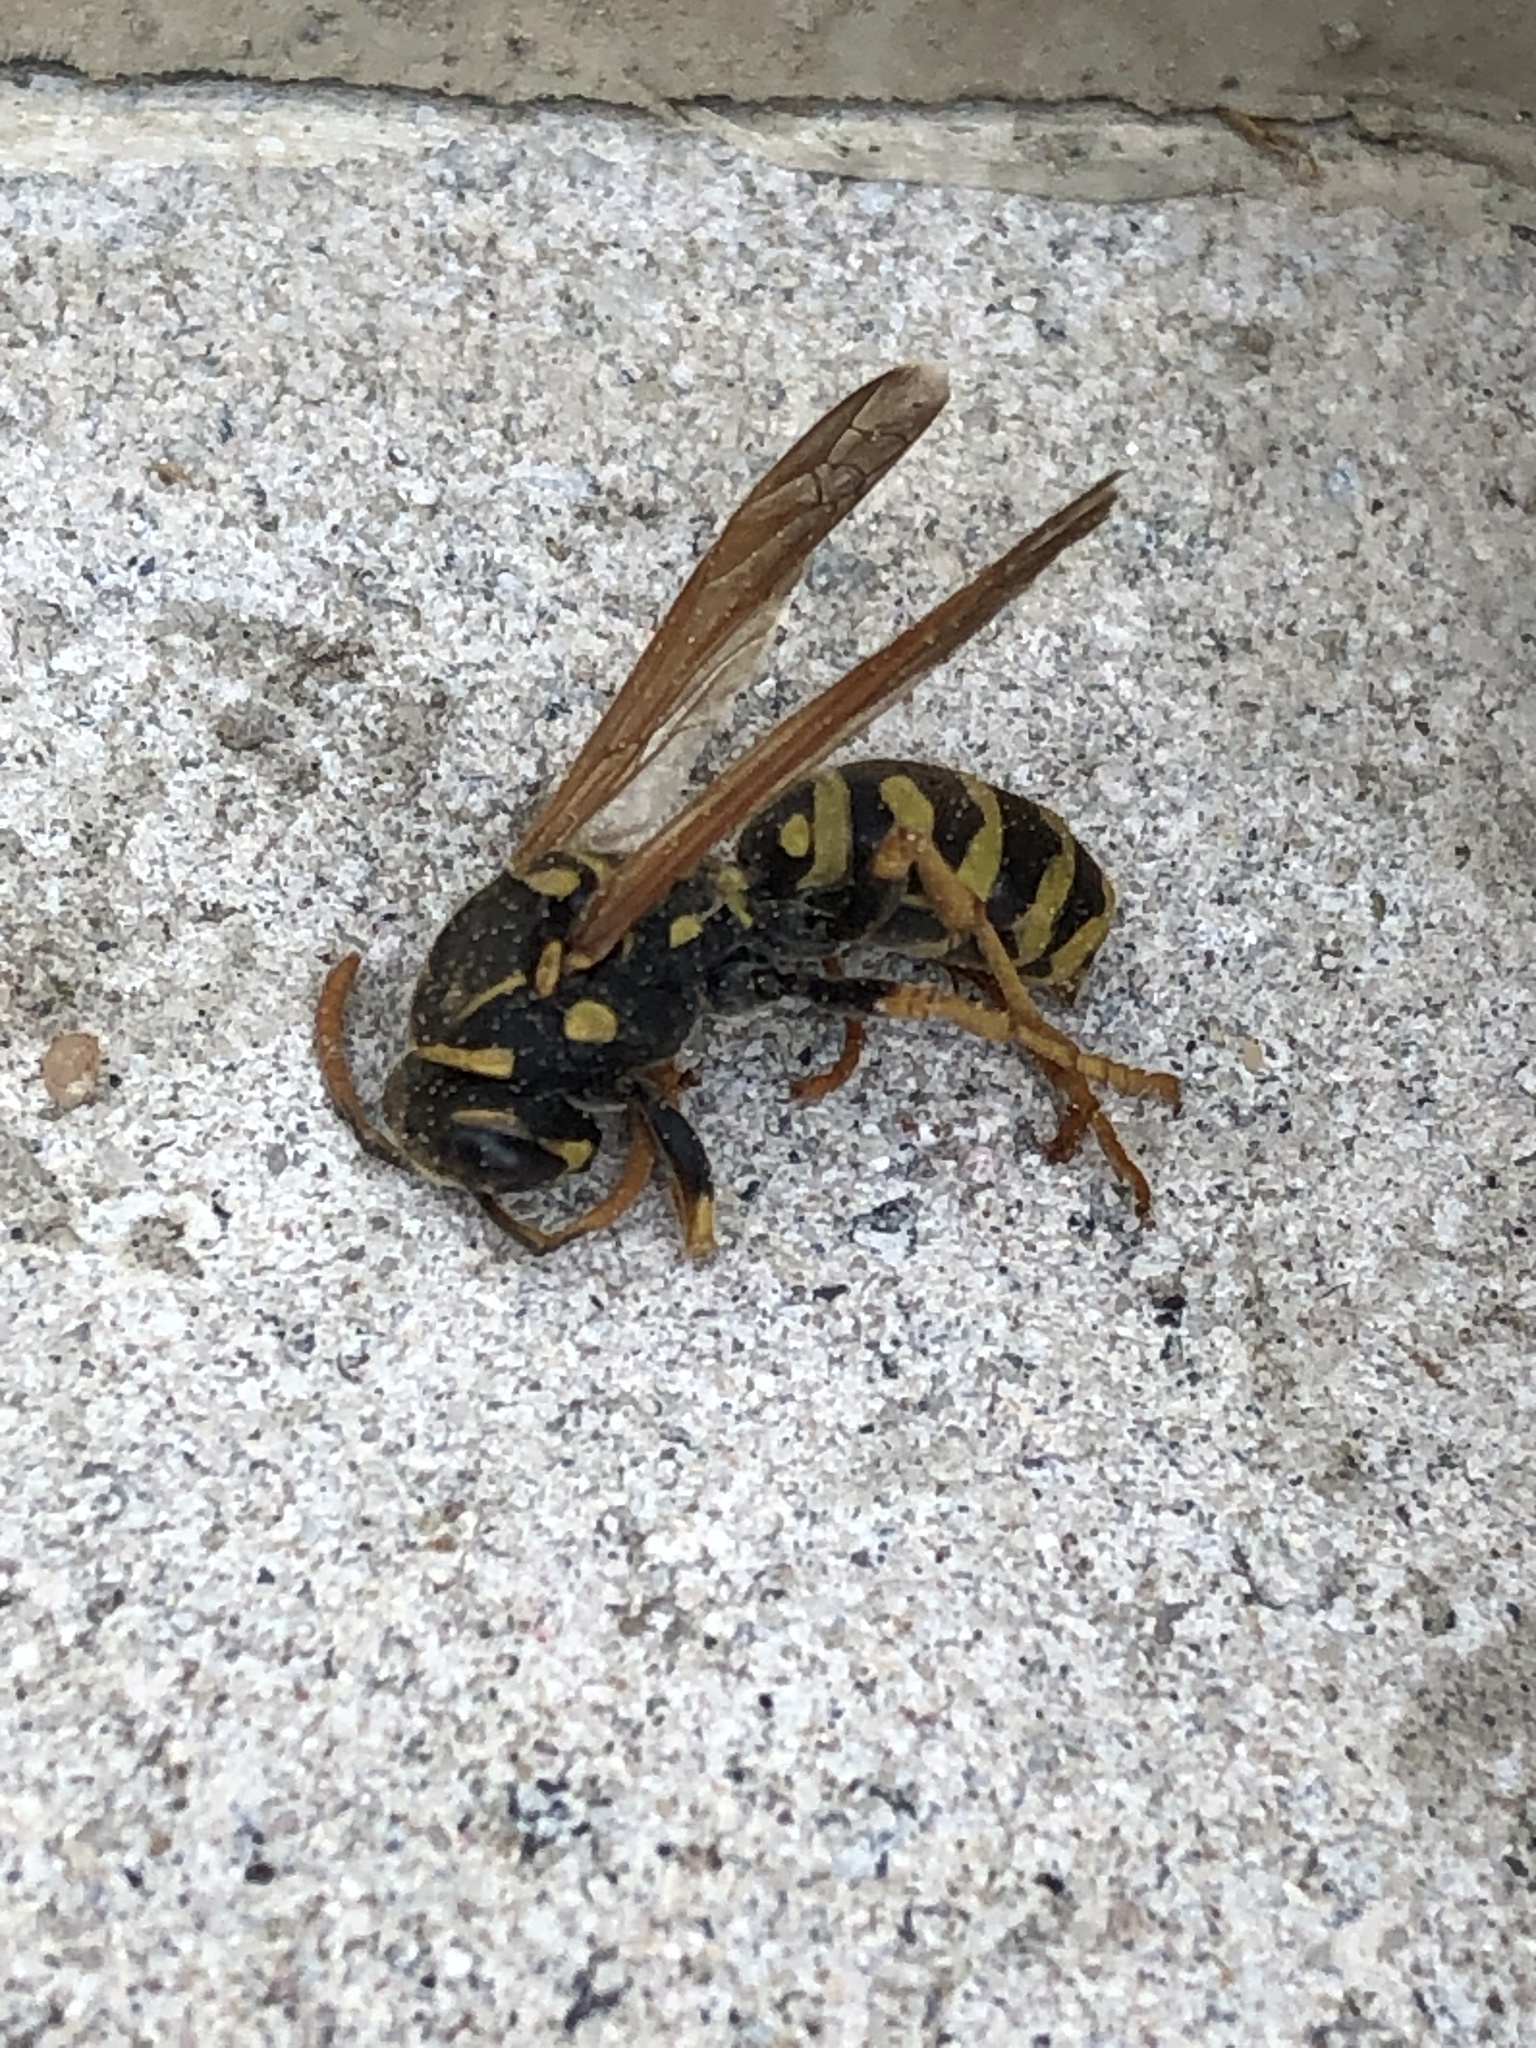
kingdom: Animalia
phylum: Arthropoda
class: Insecta
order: Hymenoptera
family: Eumenidae
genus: Polistes
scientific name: Polistes dominula
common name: Paper wasp
